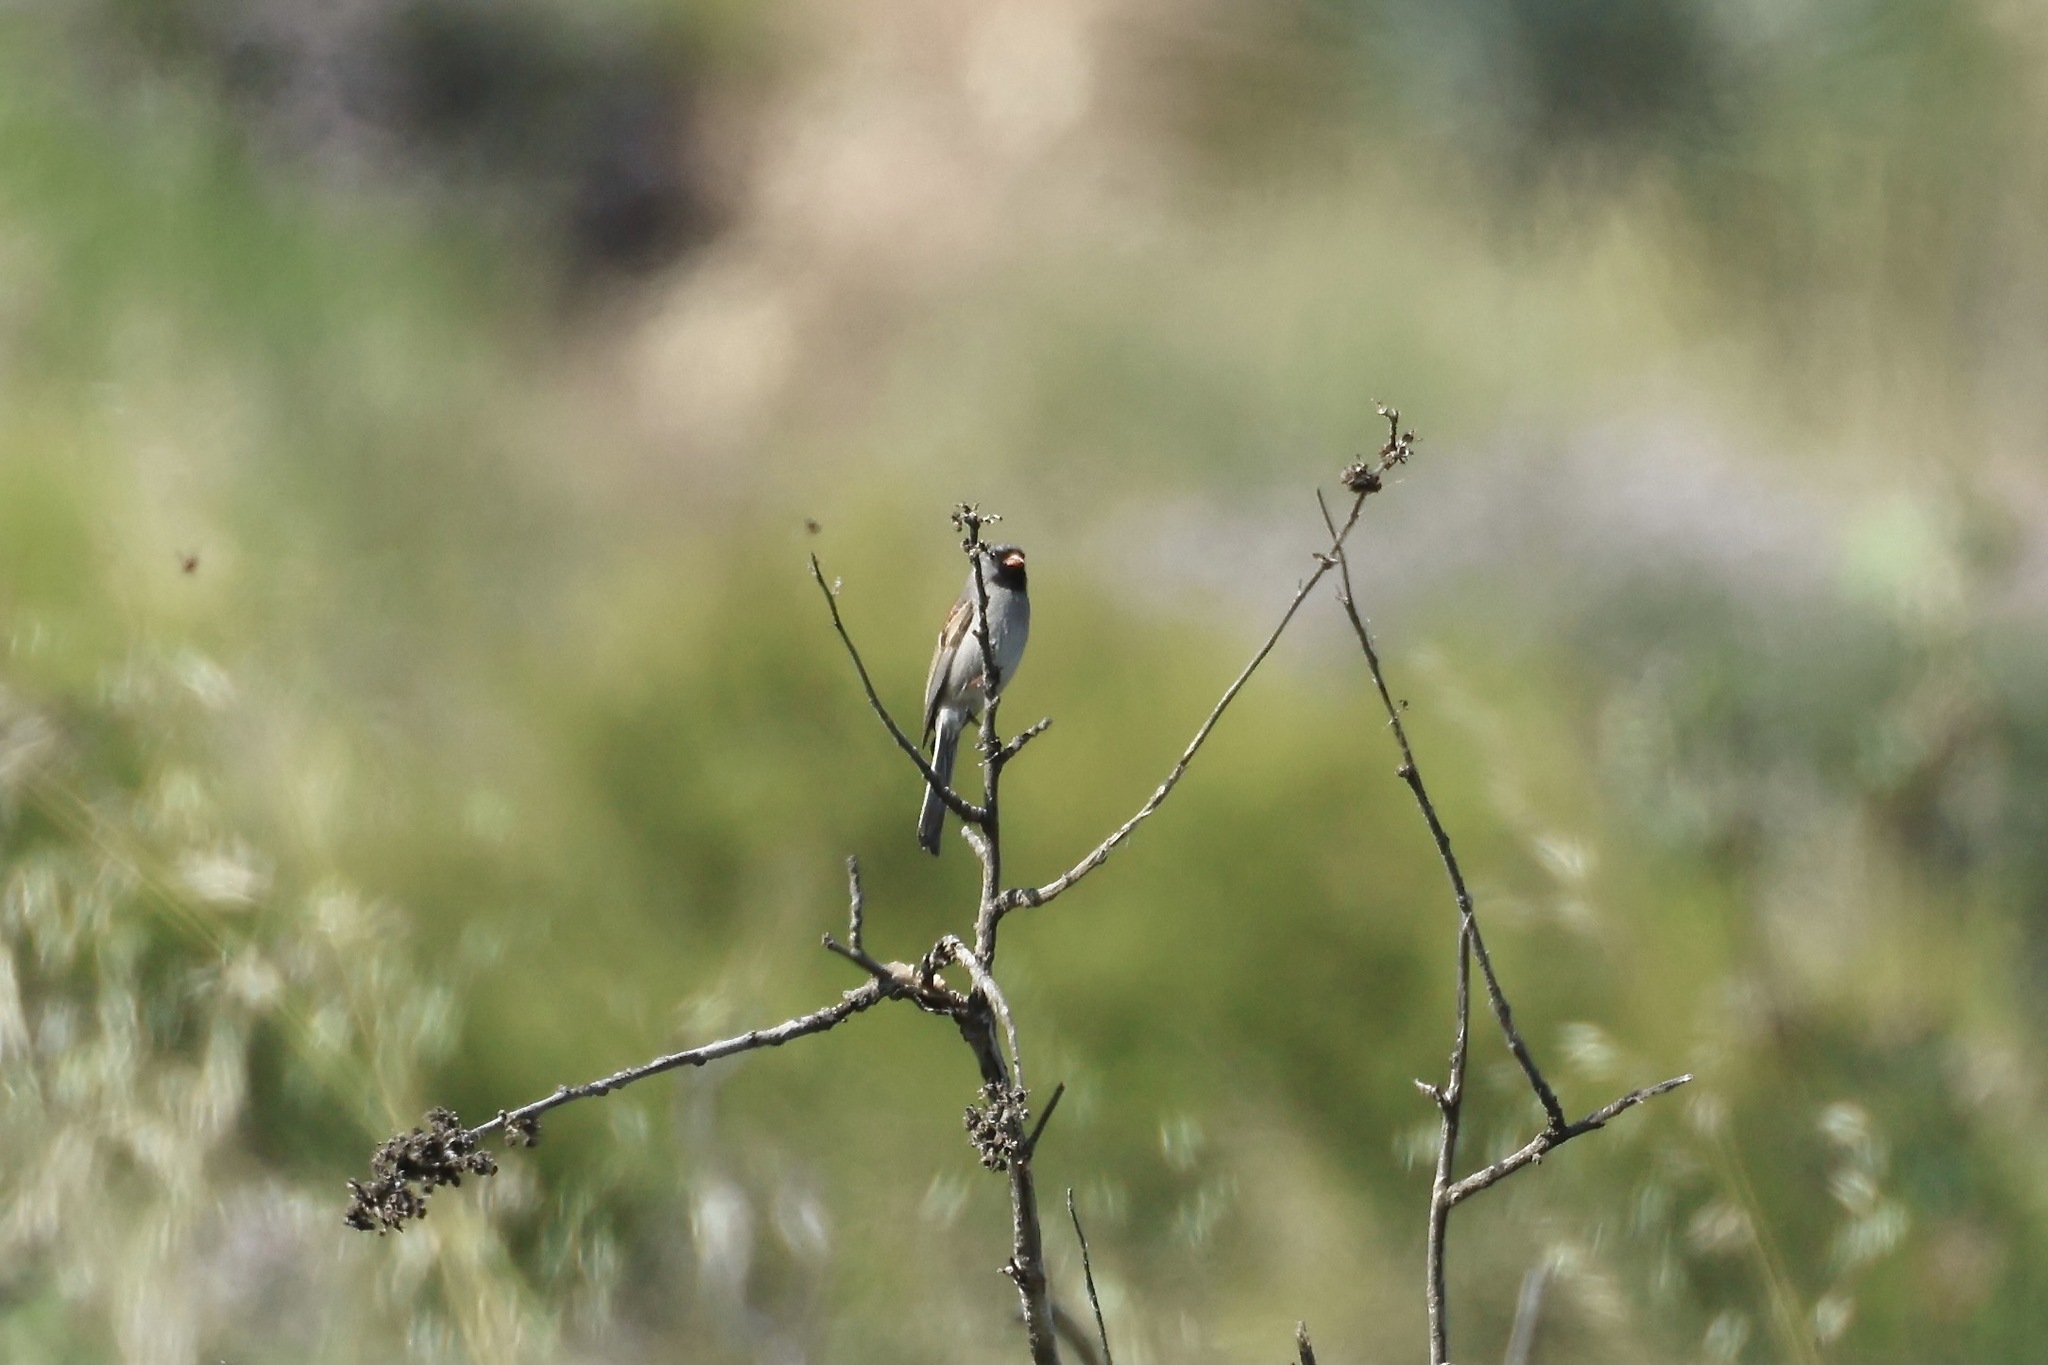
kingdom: Animalia
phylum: Chordata
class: Aves
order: Passeriformes
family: Passerellidae
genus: Spizella
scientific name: Spizella atrogularis
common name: Black-chinned sparrow
